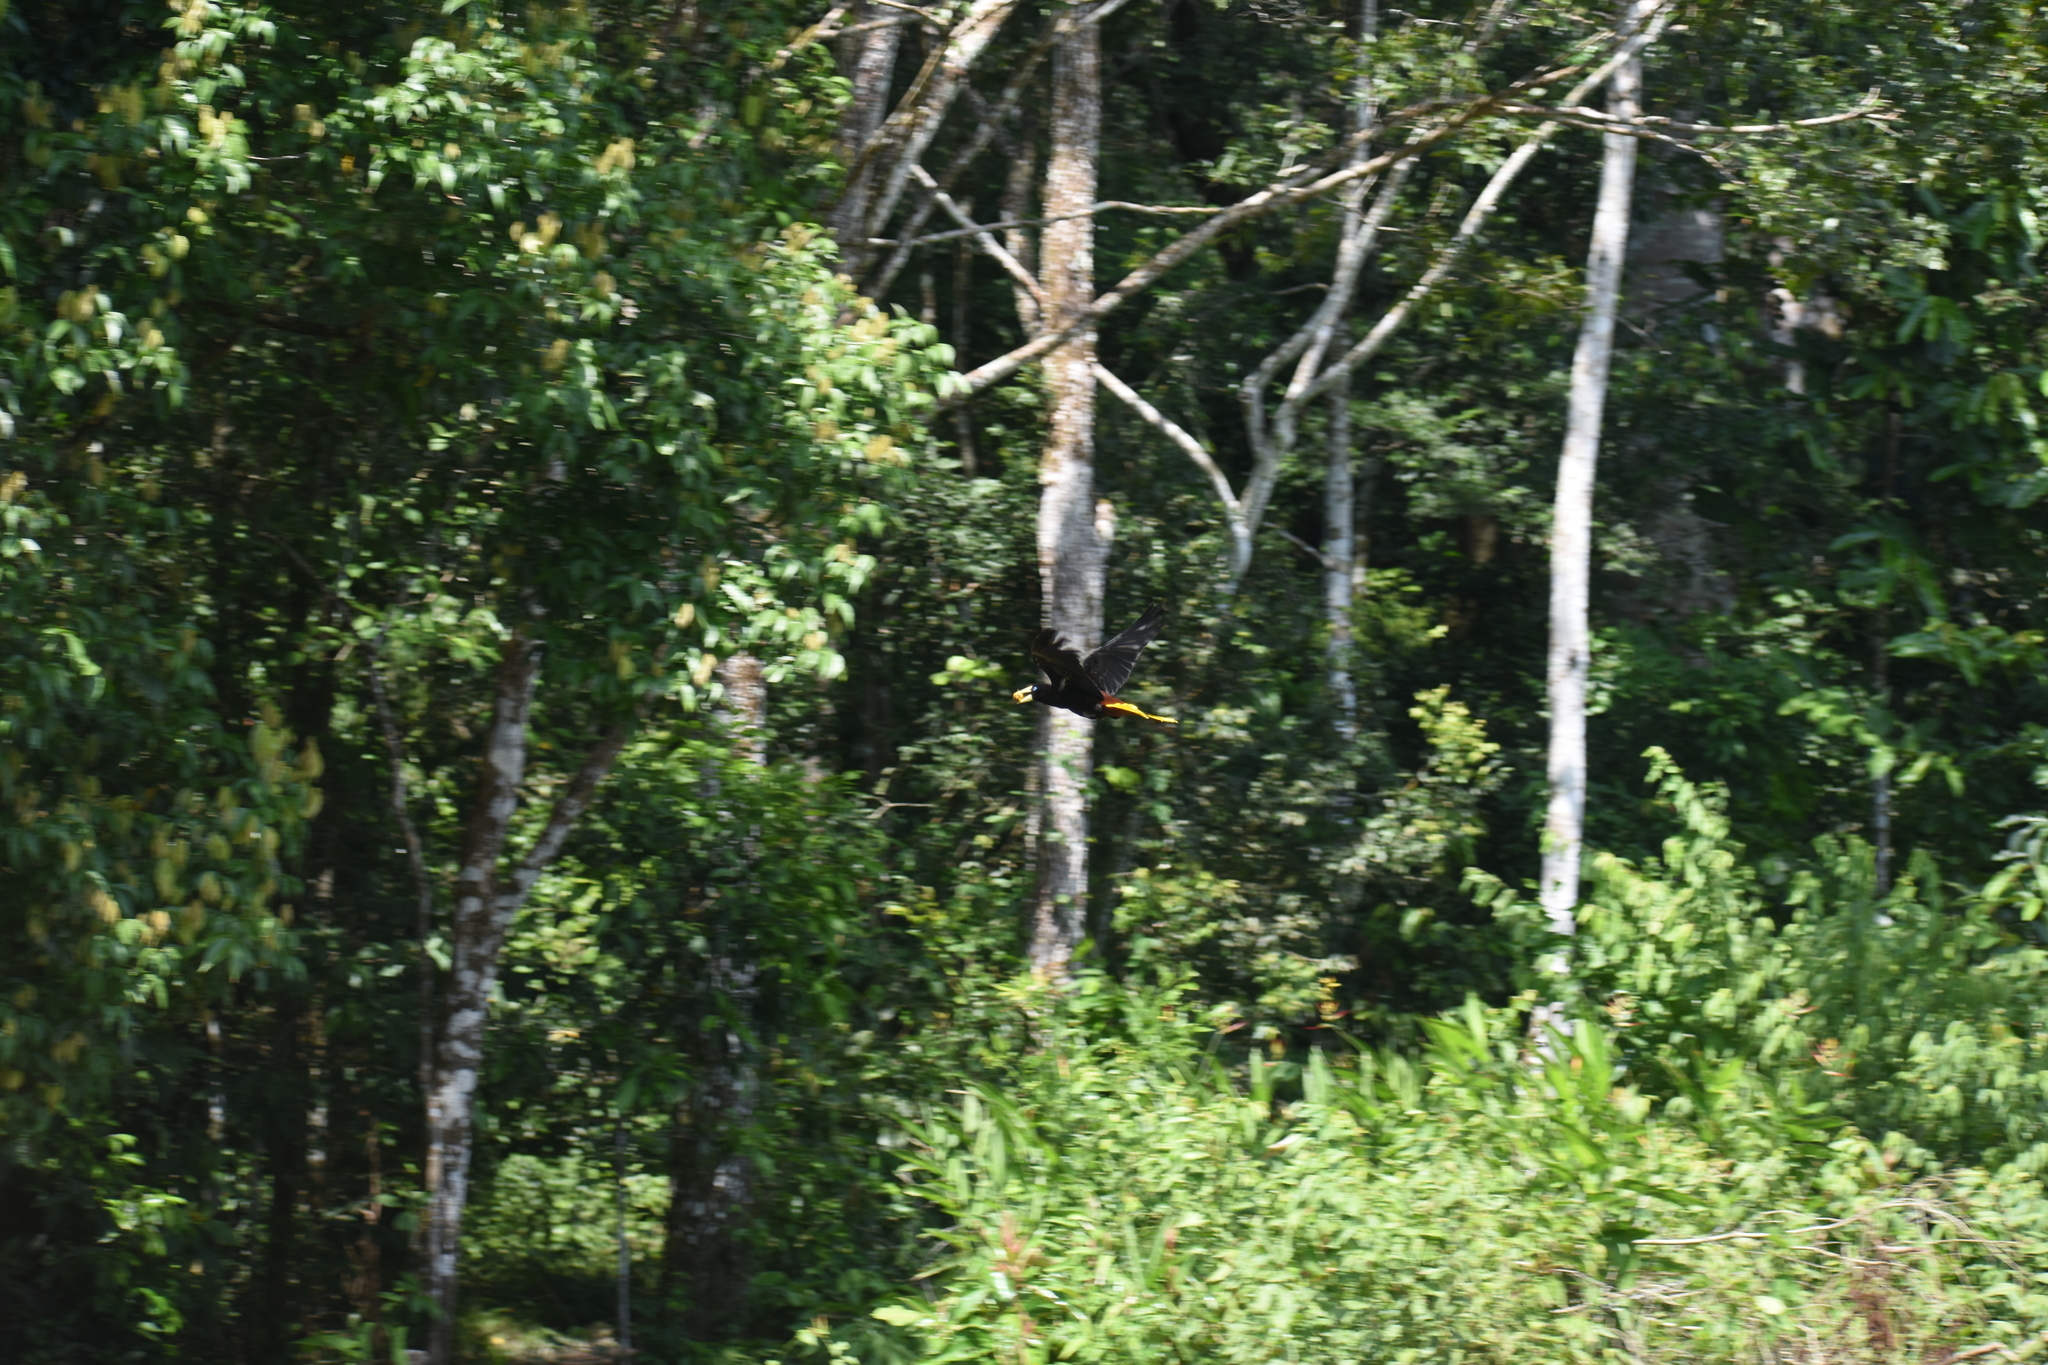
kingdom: Animalia
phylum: Chordata
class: Aves
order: Passeriformes
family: Icteridae
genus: Psarocolius
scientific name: Psarocolius decumanus
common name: Crested oropendola
